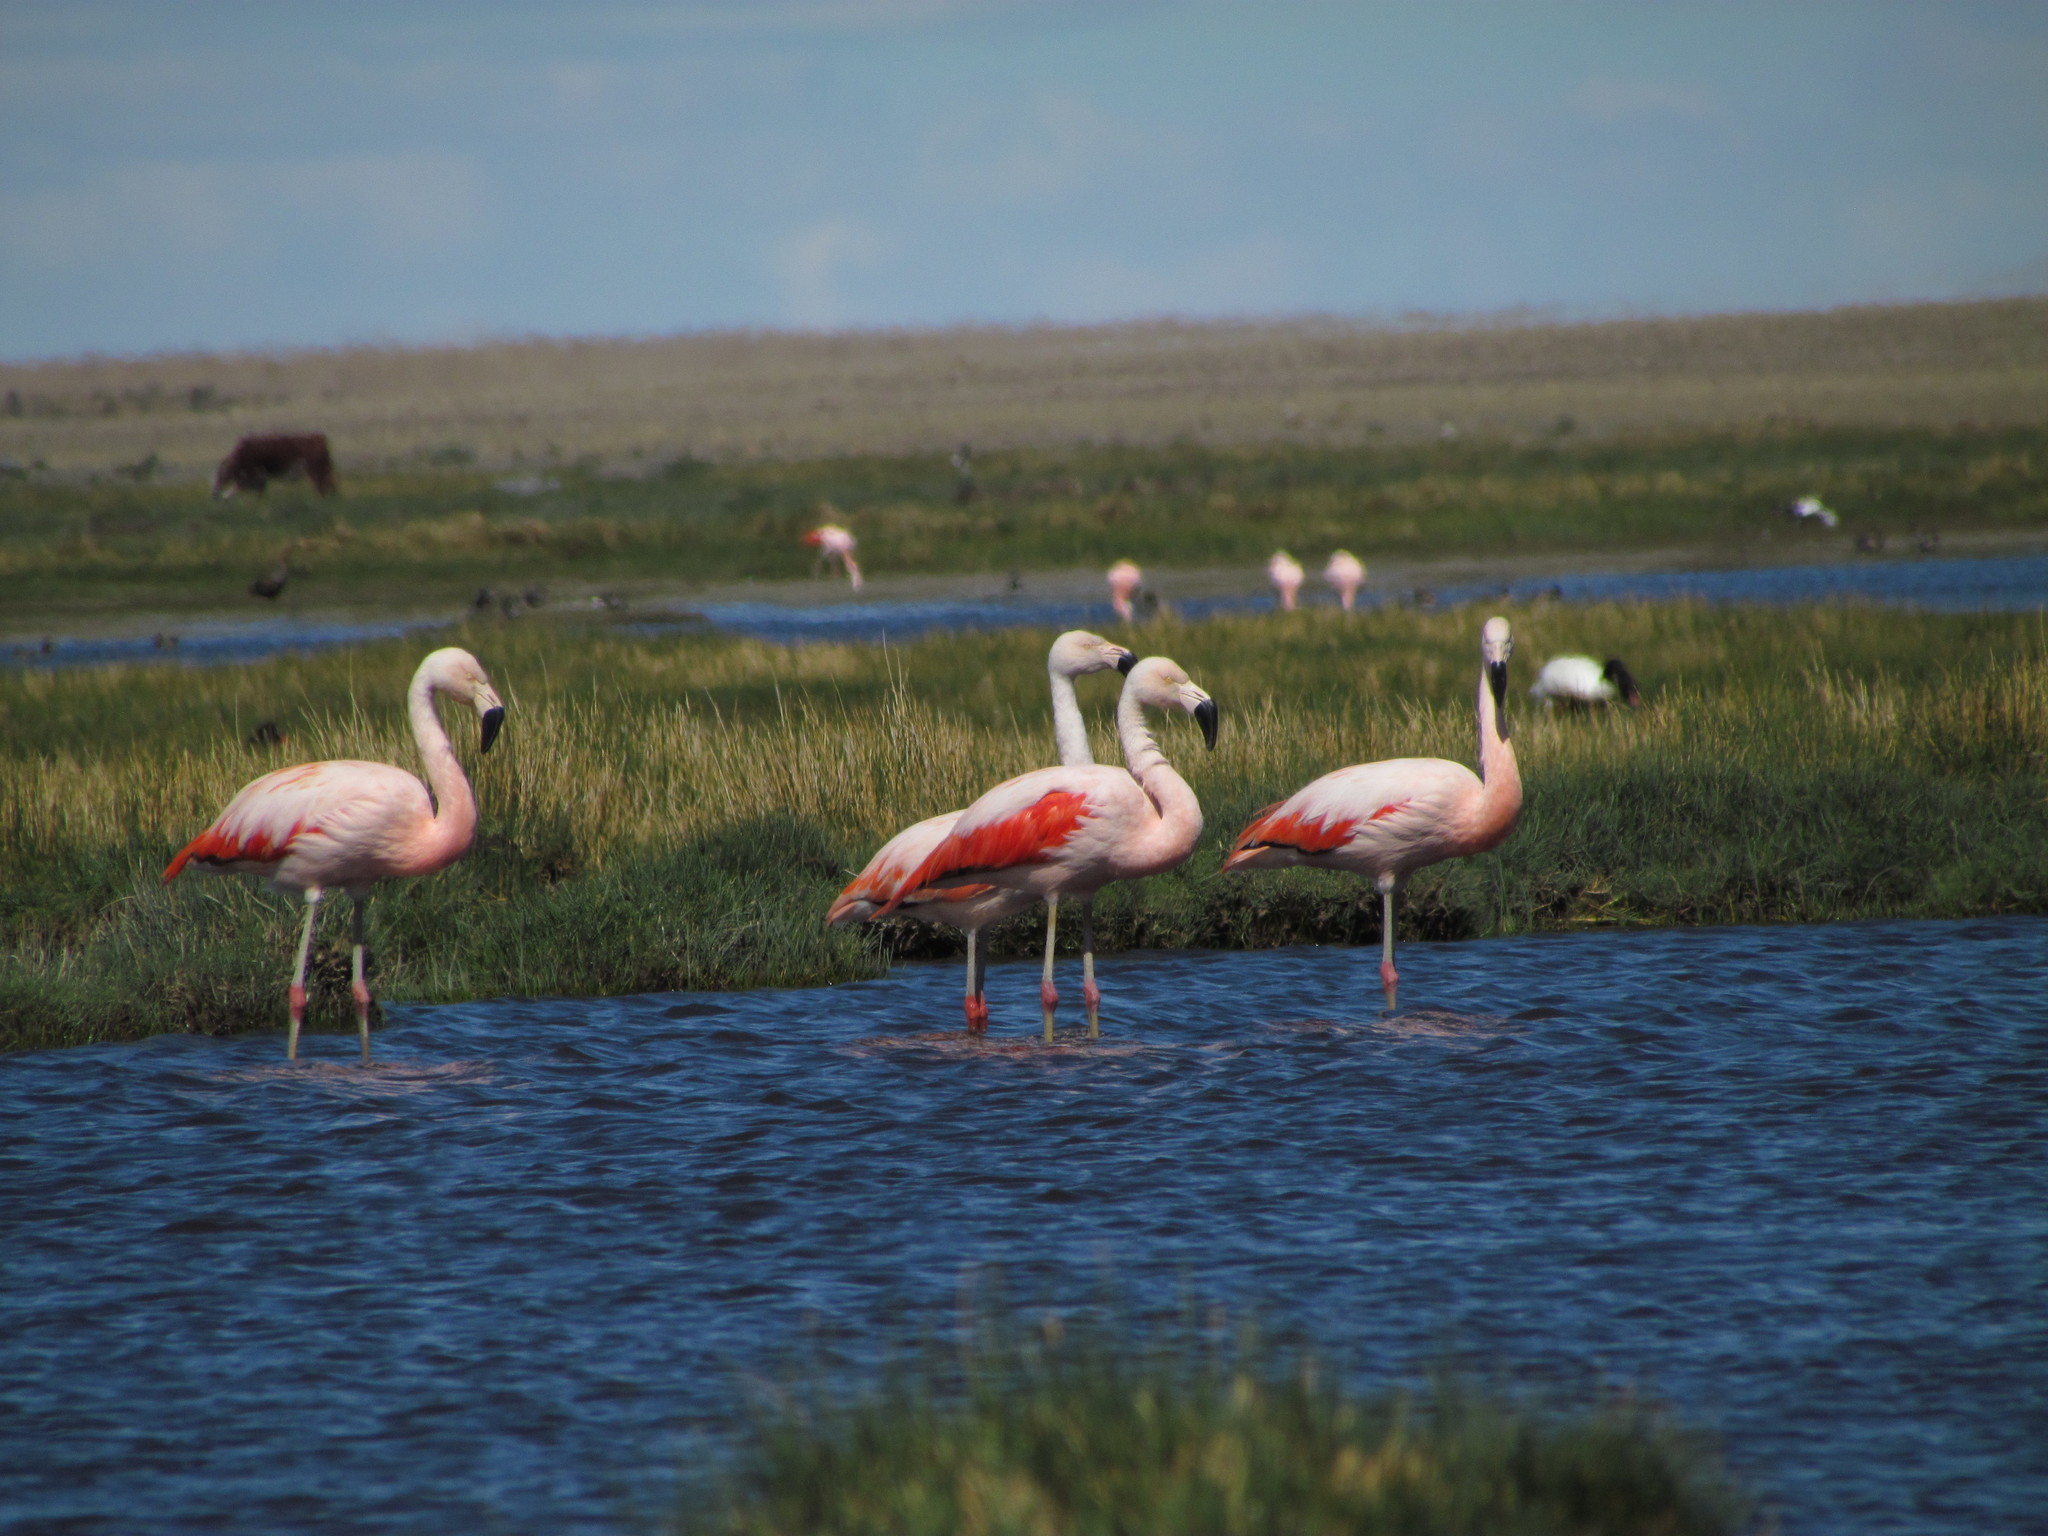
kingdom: Animalia
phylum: Chordata
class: Aves
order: Phoenicopteriformes
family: Phoenicopteridae
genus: Phoenicopterus
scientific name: Phoenicopterus chilensis
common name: Chilean flamingo
